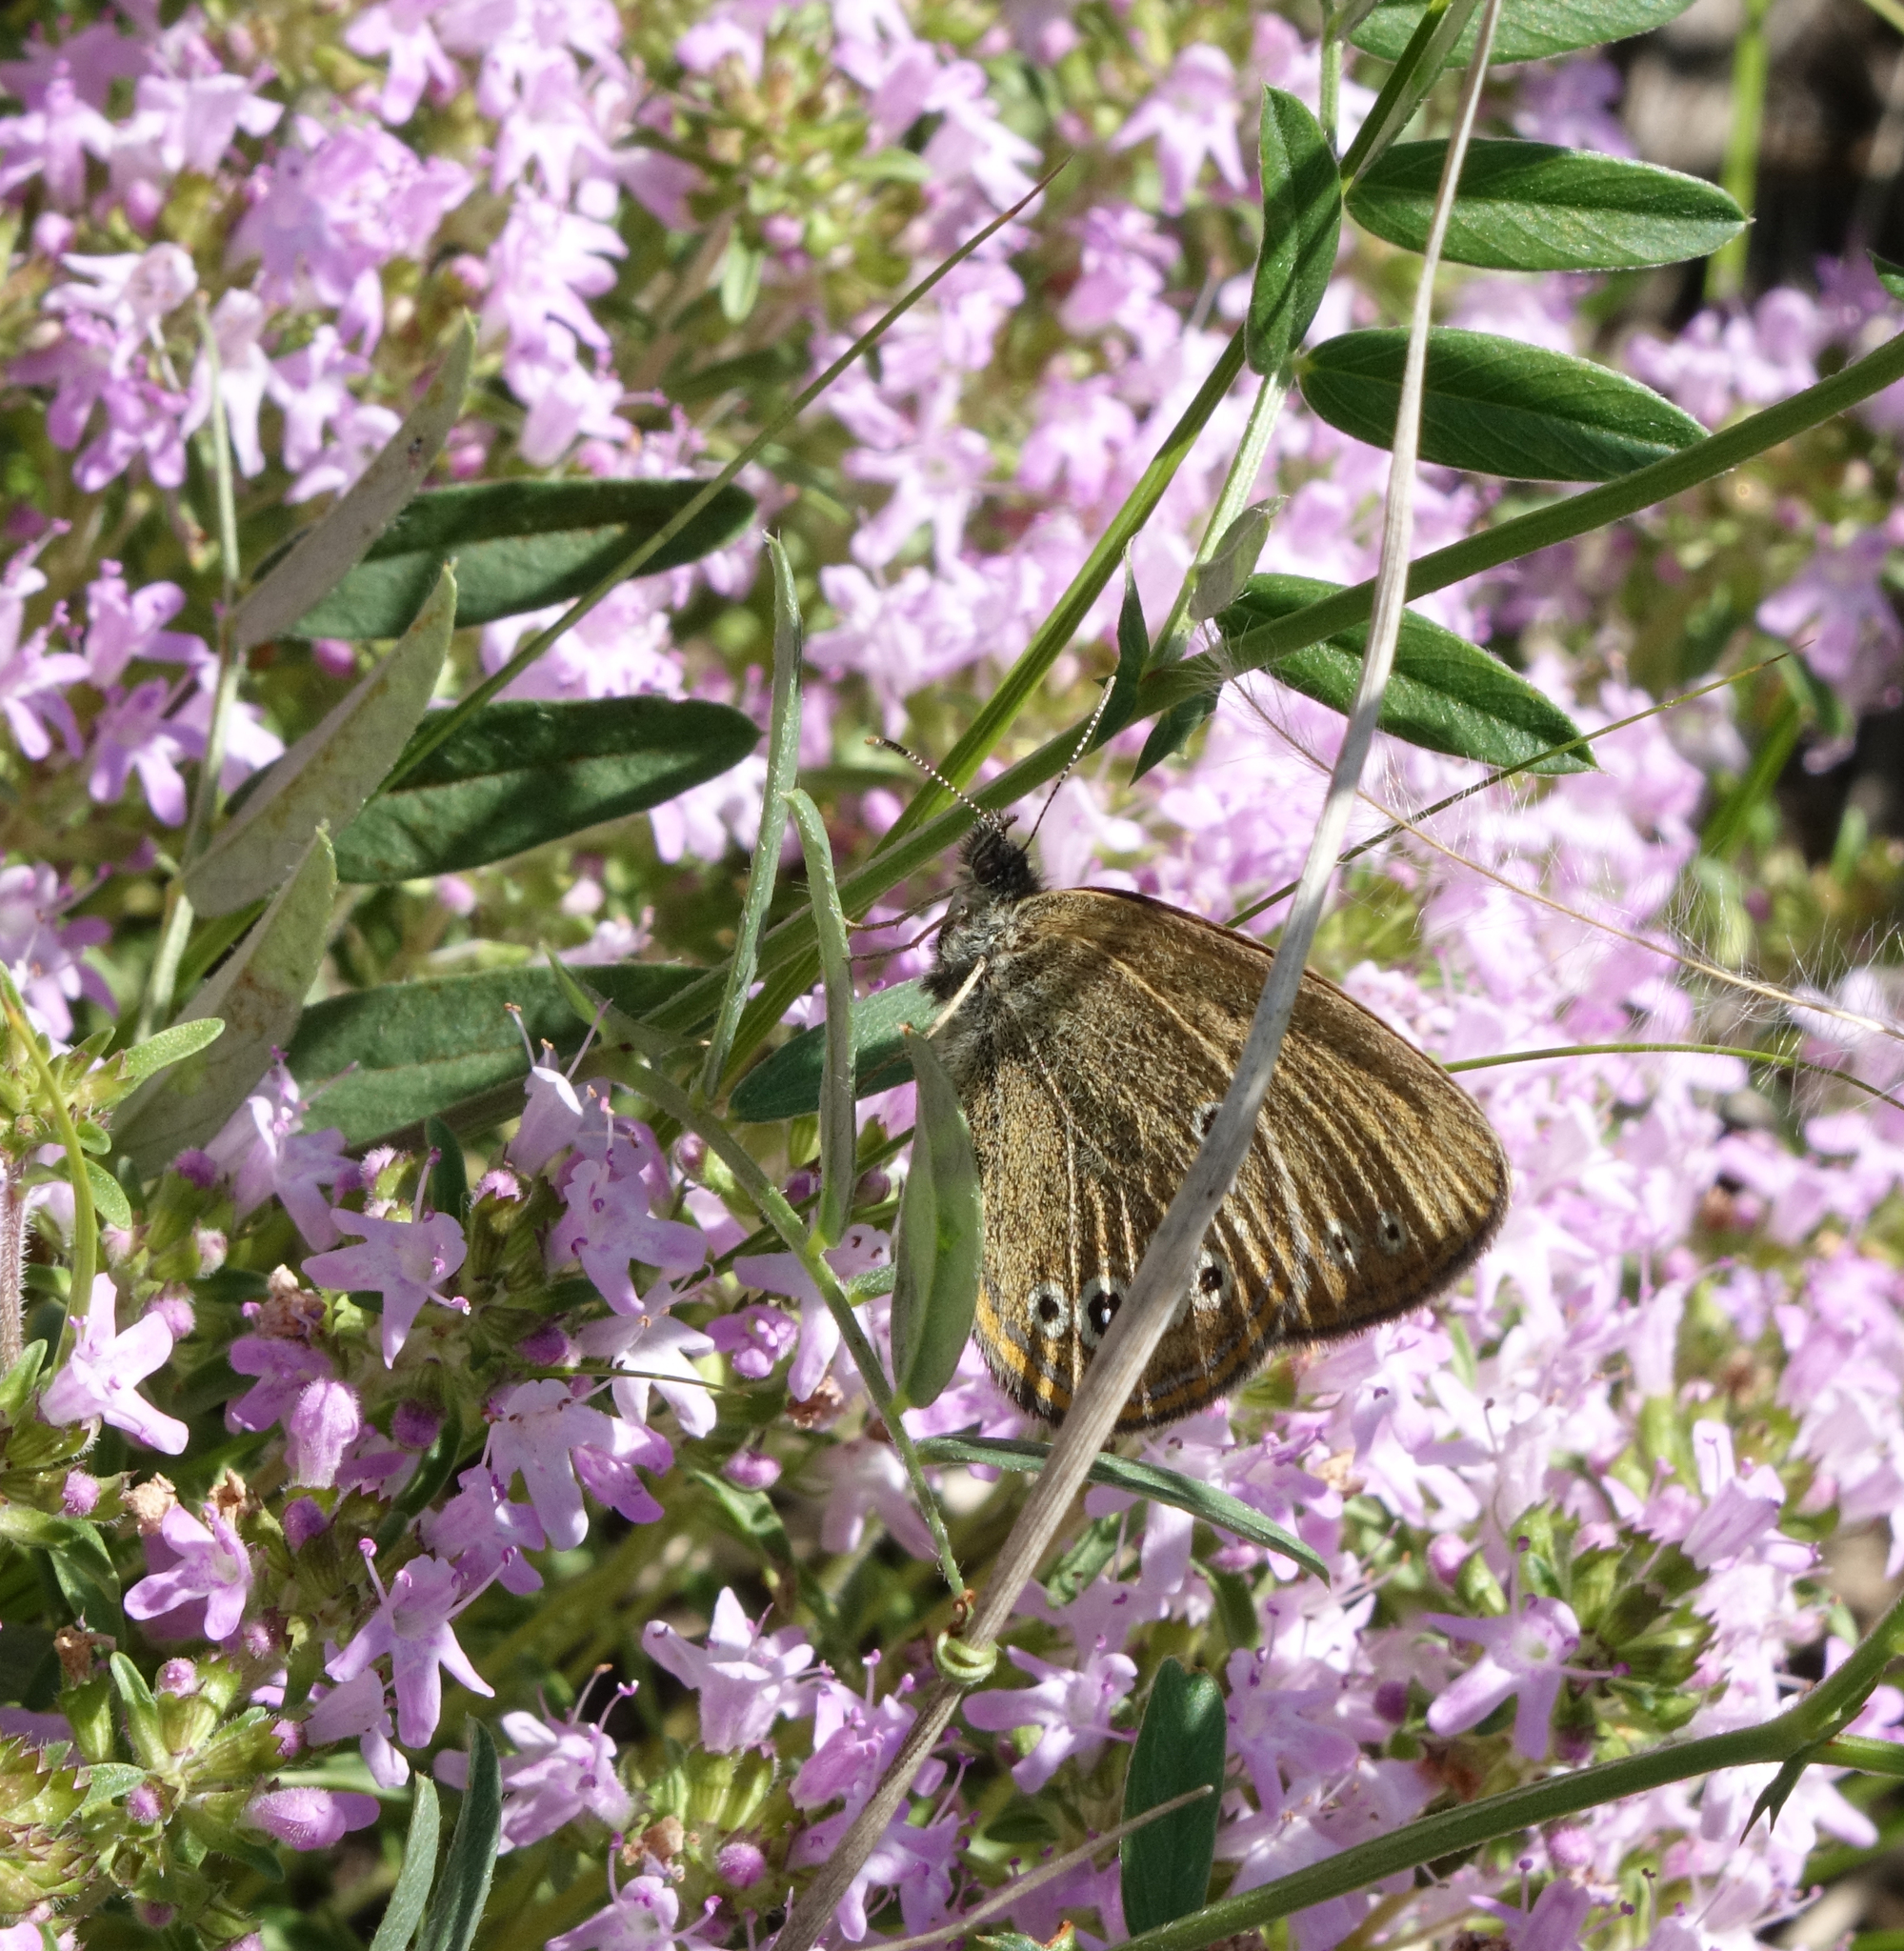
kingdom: Animalia
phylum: Arthropoda
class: Insecta
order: Lepidoptera
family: Nymphalidae
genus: Coenonympha
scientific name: Coenonympha oedippus
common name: False ringlet
